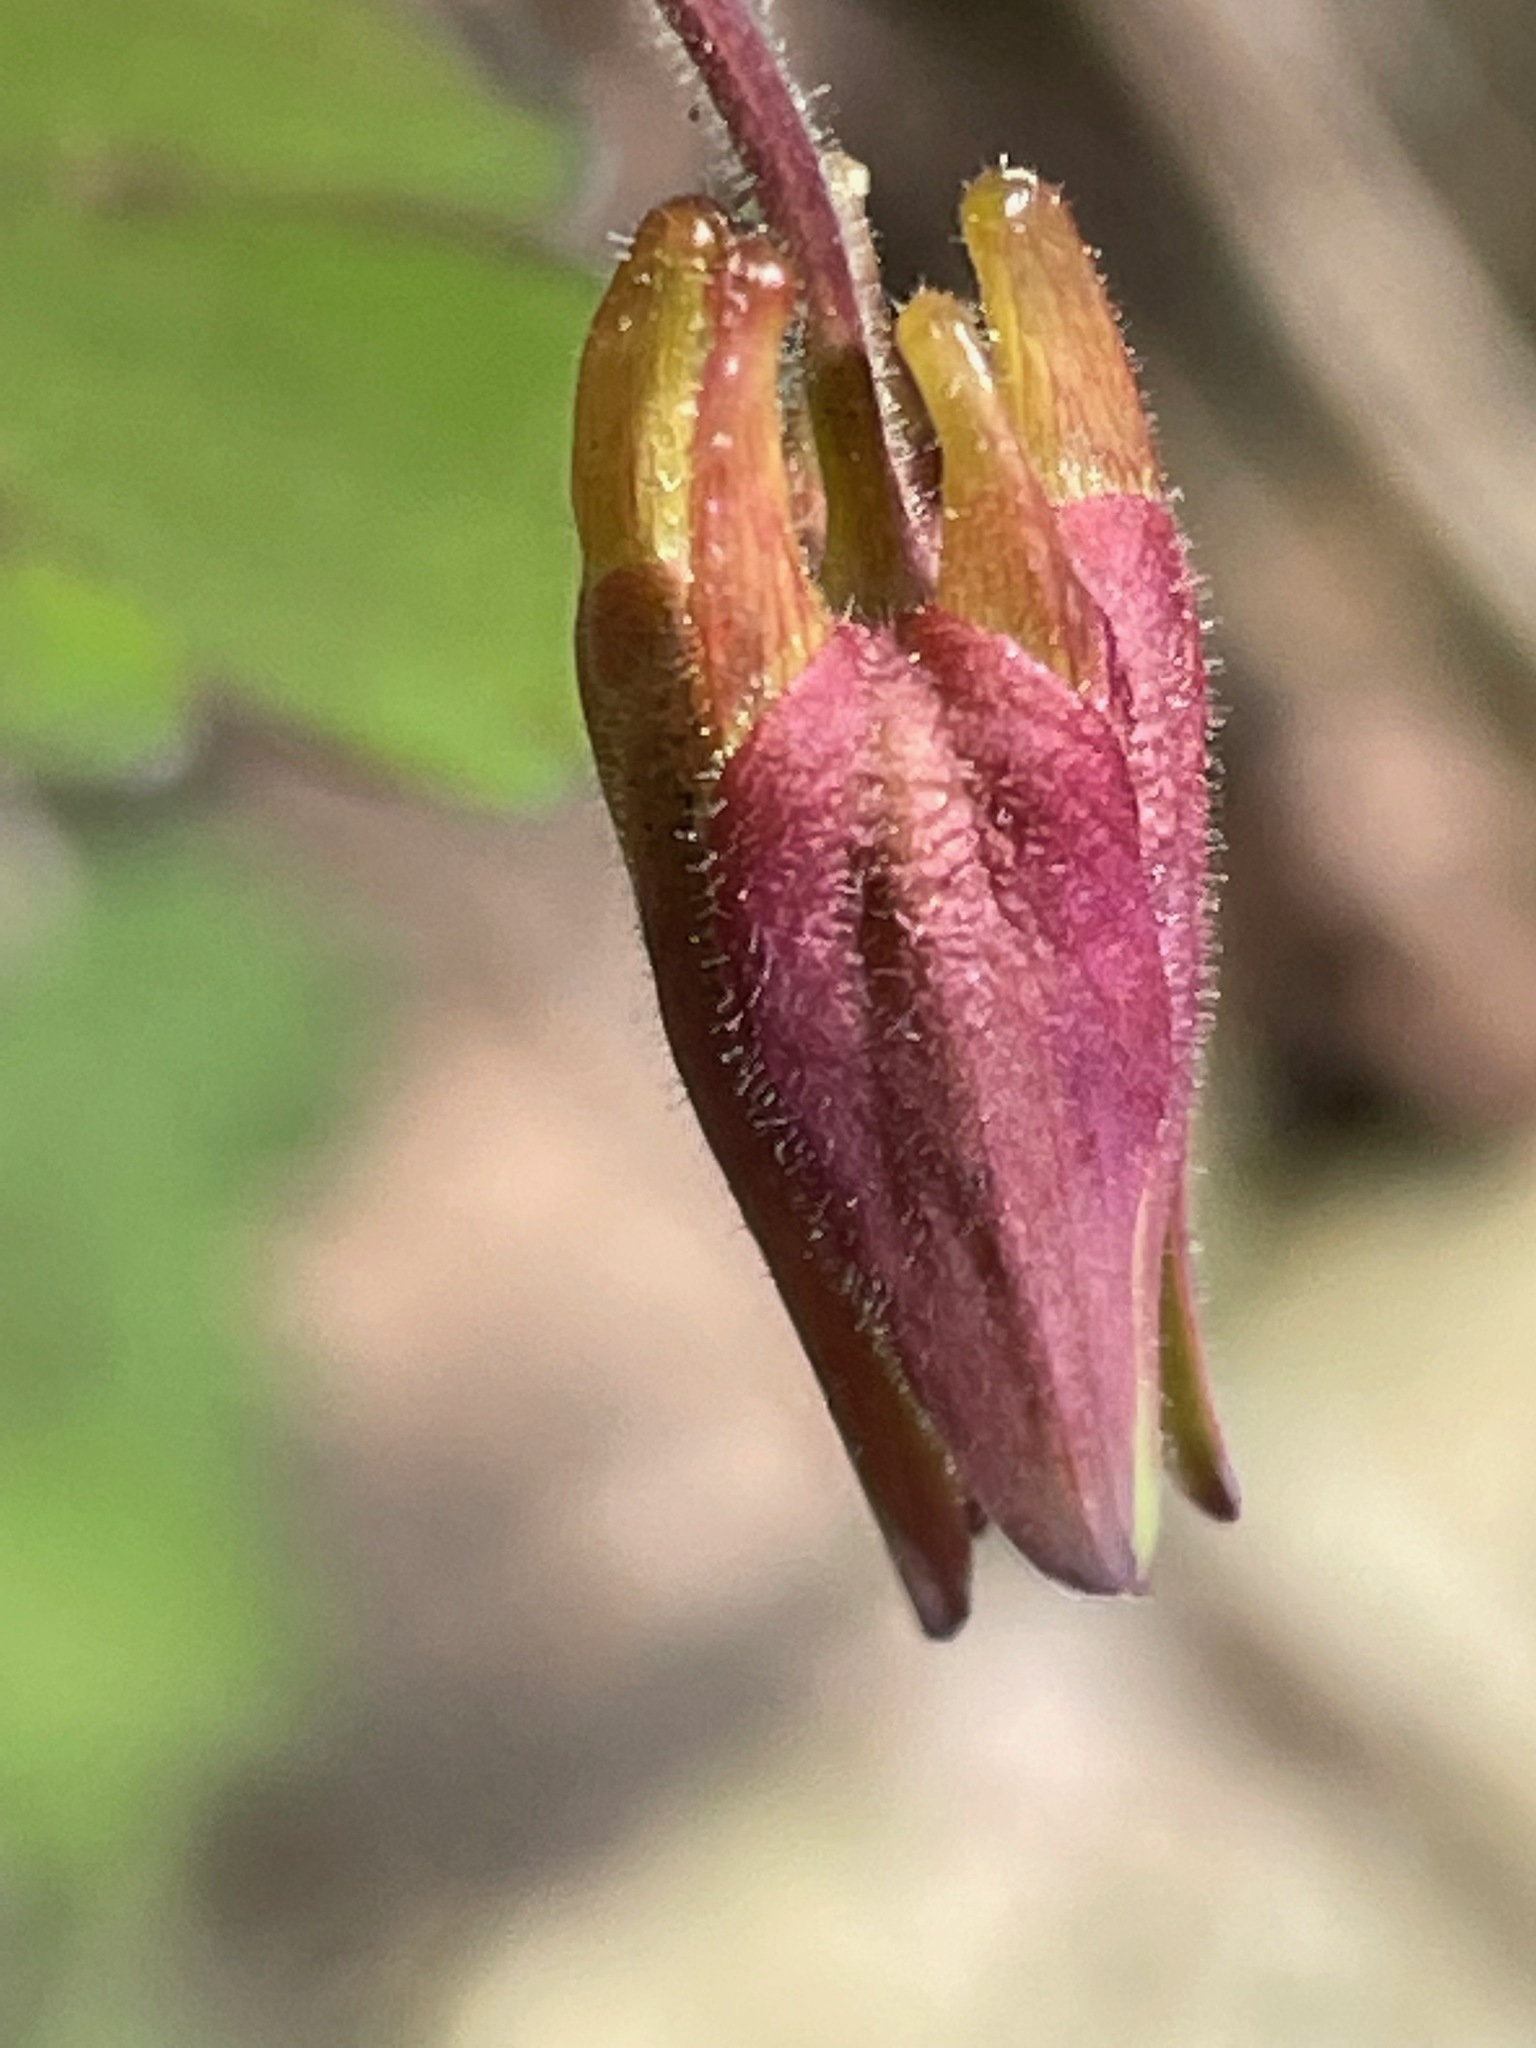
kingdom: Plantae
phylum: Tracheophyta
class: Magnoliopsida
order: Ranunculales
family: Ranunculaceae
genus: Aquilegia
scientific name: Aquilegia canadensis
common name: American columbine
